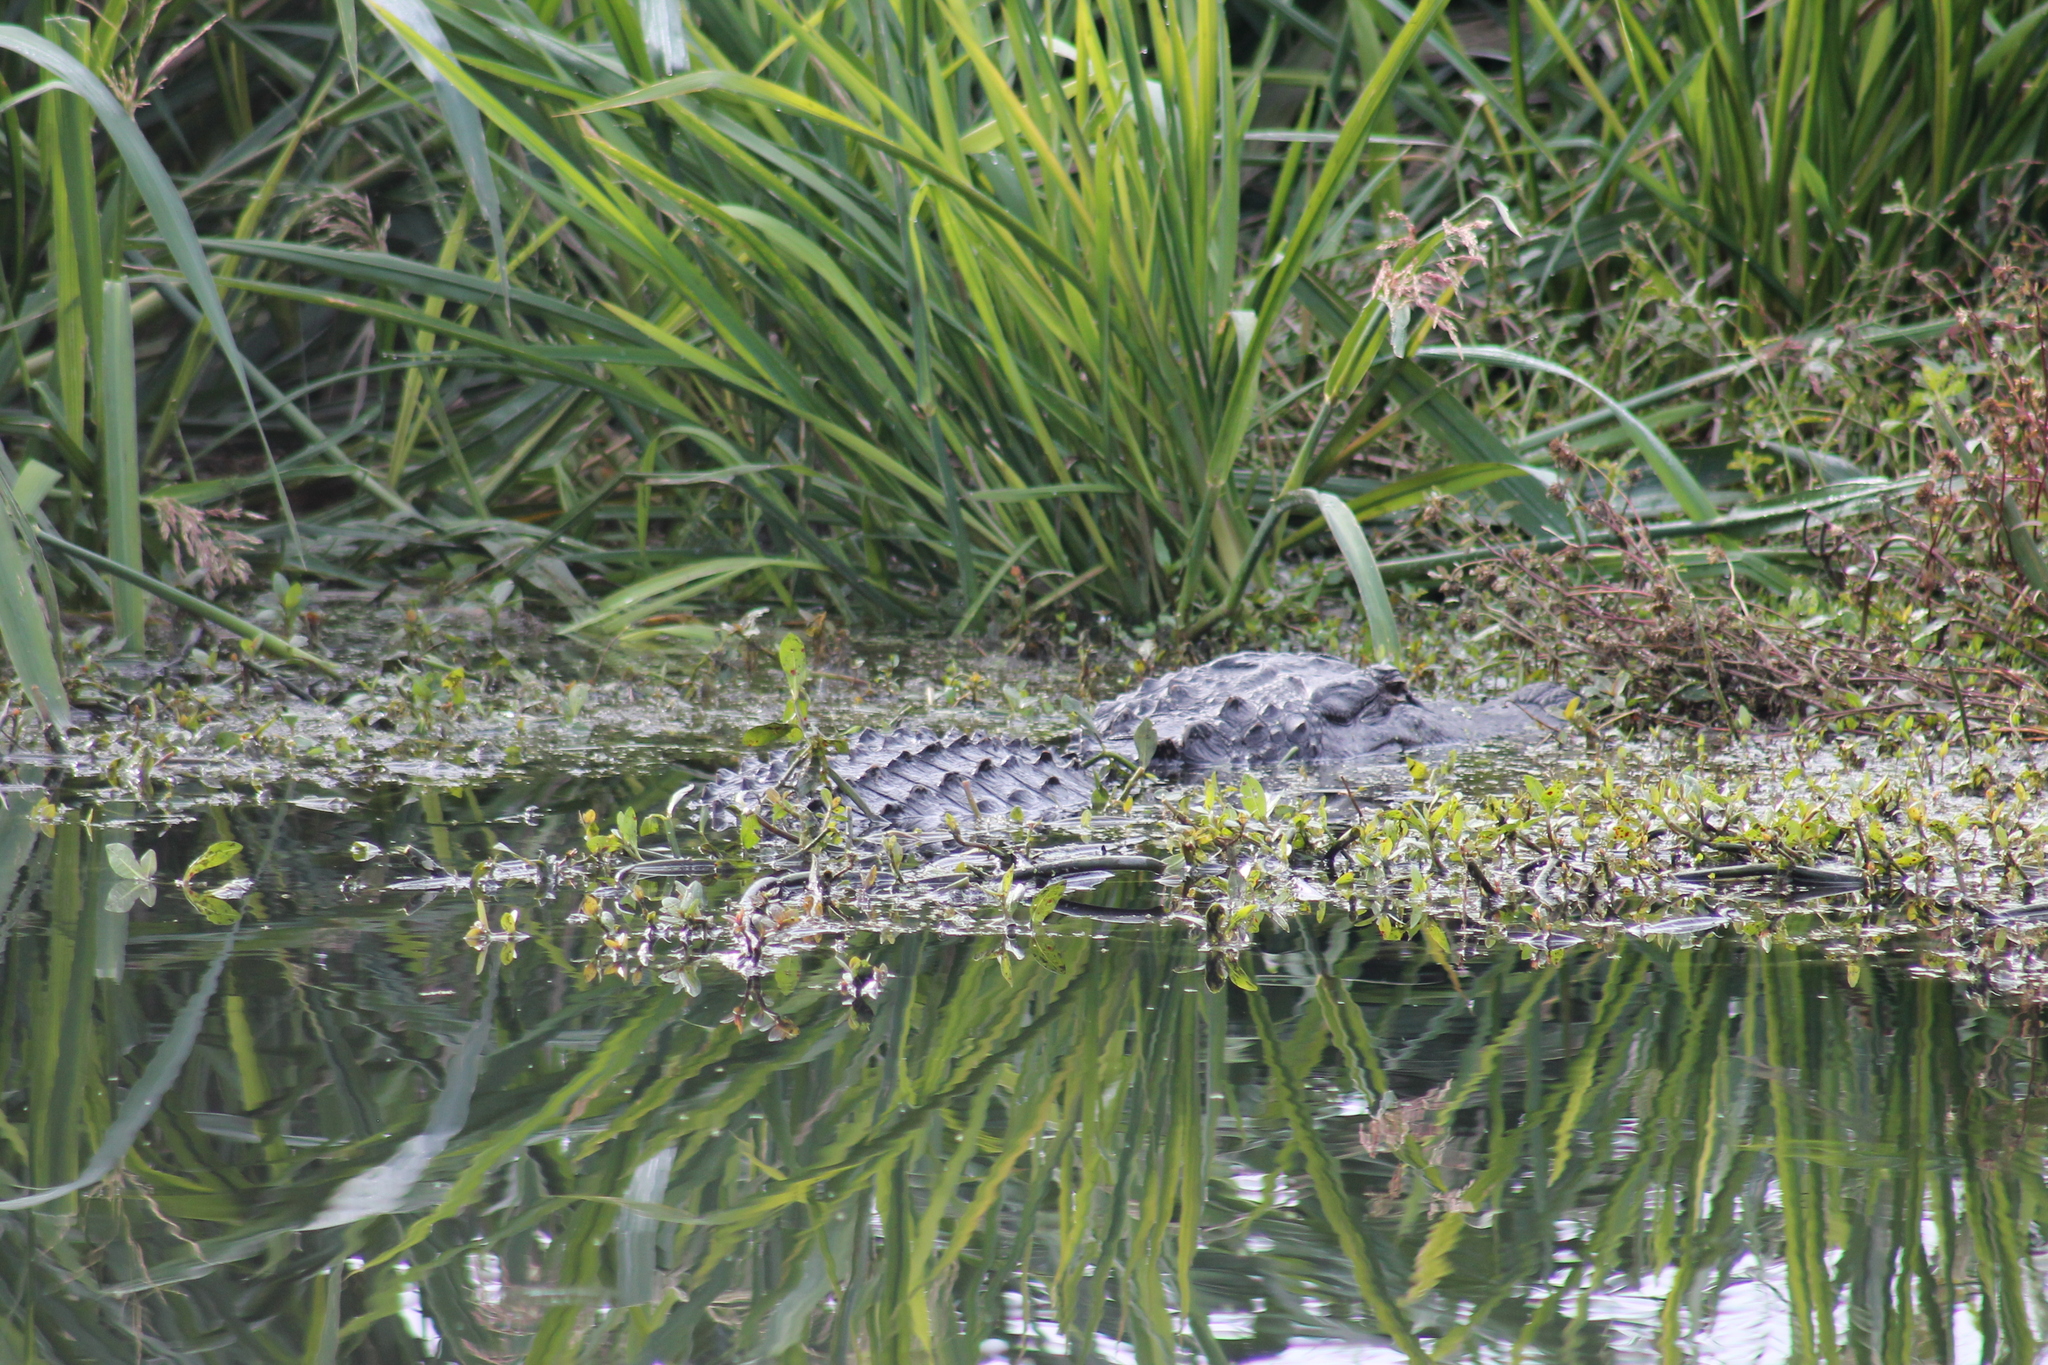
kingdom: Animalia
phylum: Chordata
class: Crocodylia
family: Alligatoridae
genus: Alligator
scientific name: Alligator mississippiensis
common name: American alligator
